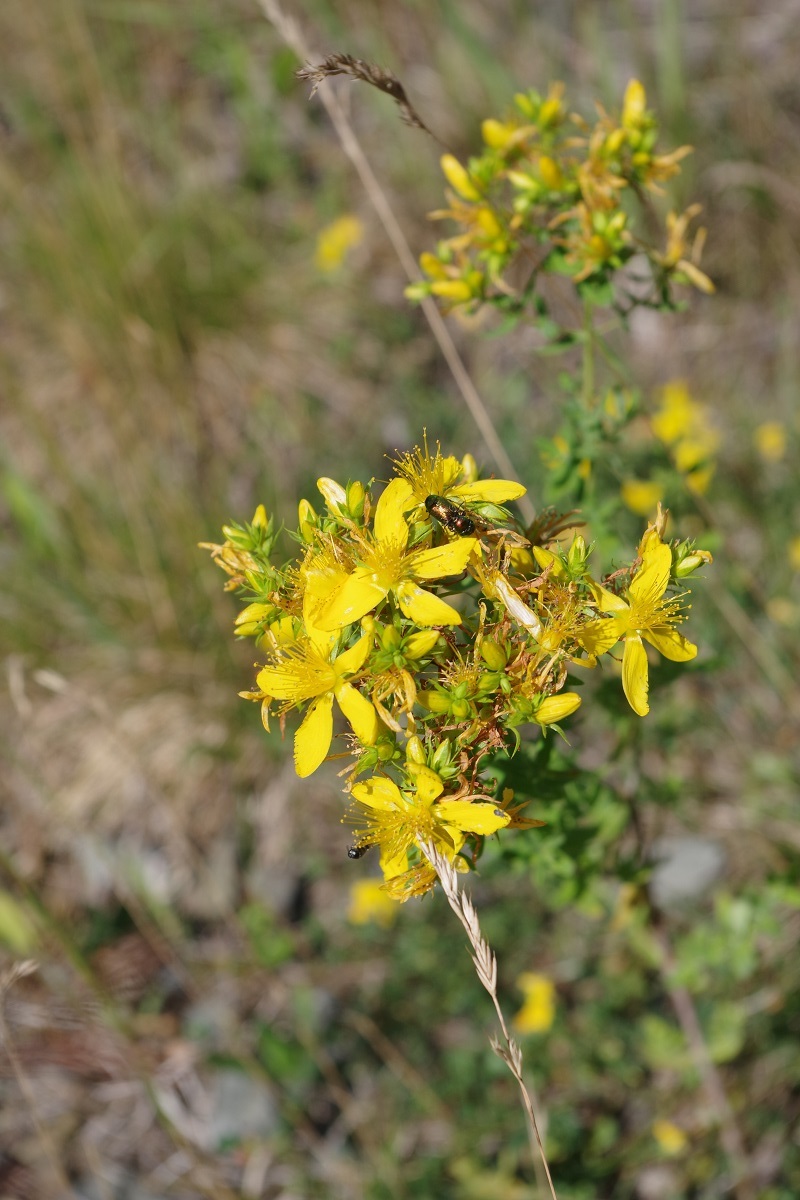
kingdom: Plantae
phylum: Tracheophyta
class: Magnoliopsida
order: Malpighiales
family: Hypericaceae
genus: Hypericum
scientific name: Hypericum perforatum
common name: Common st. johnswort
